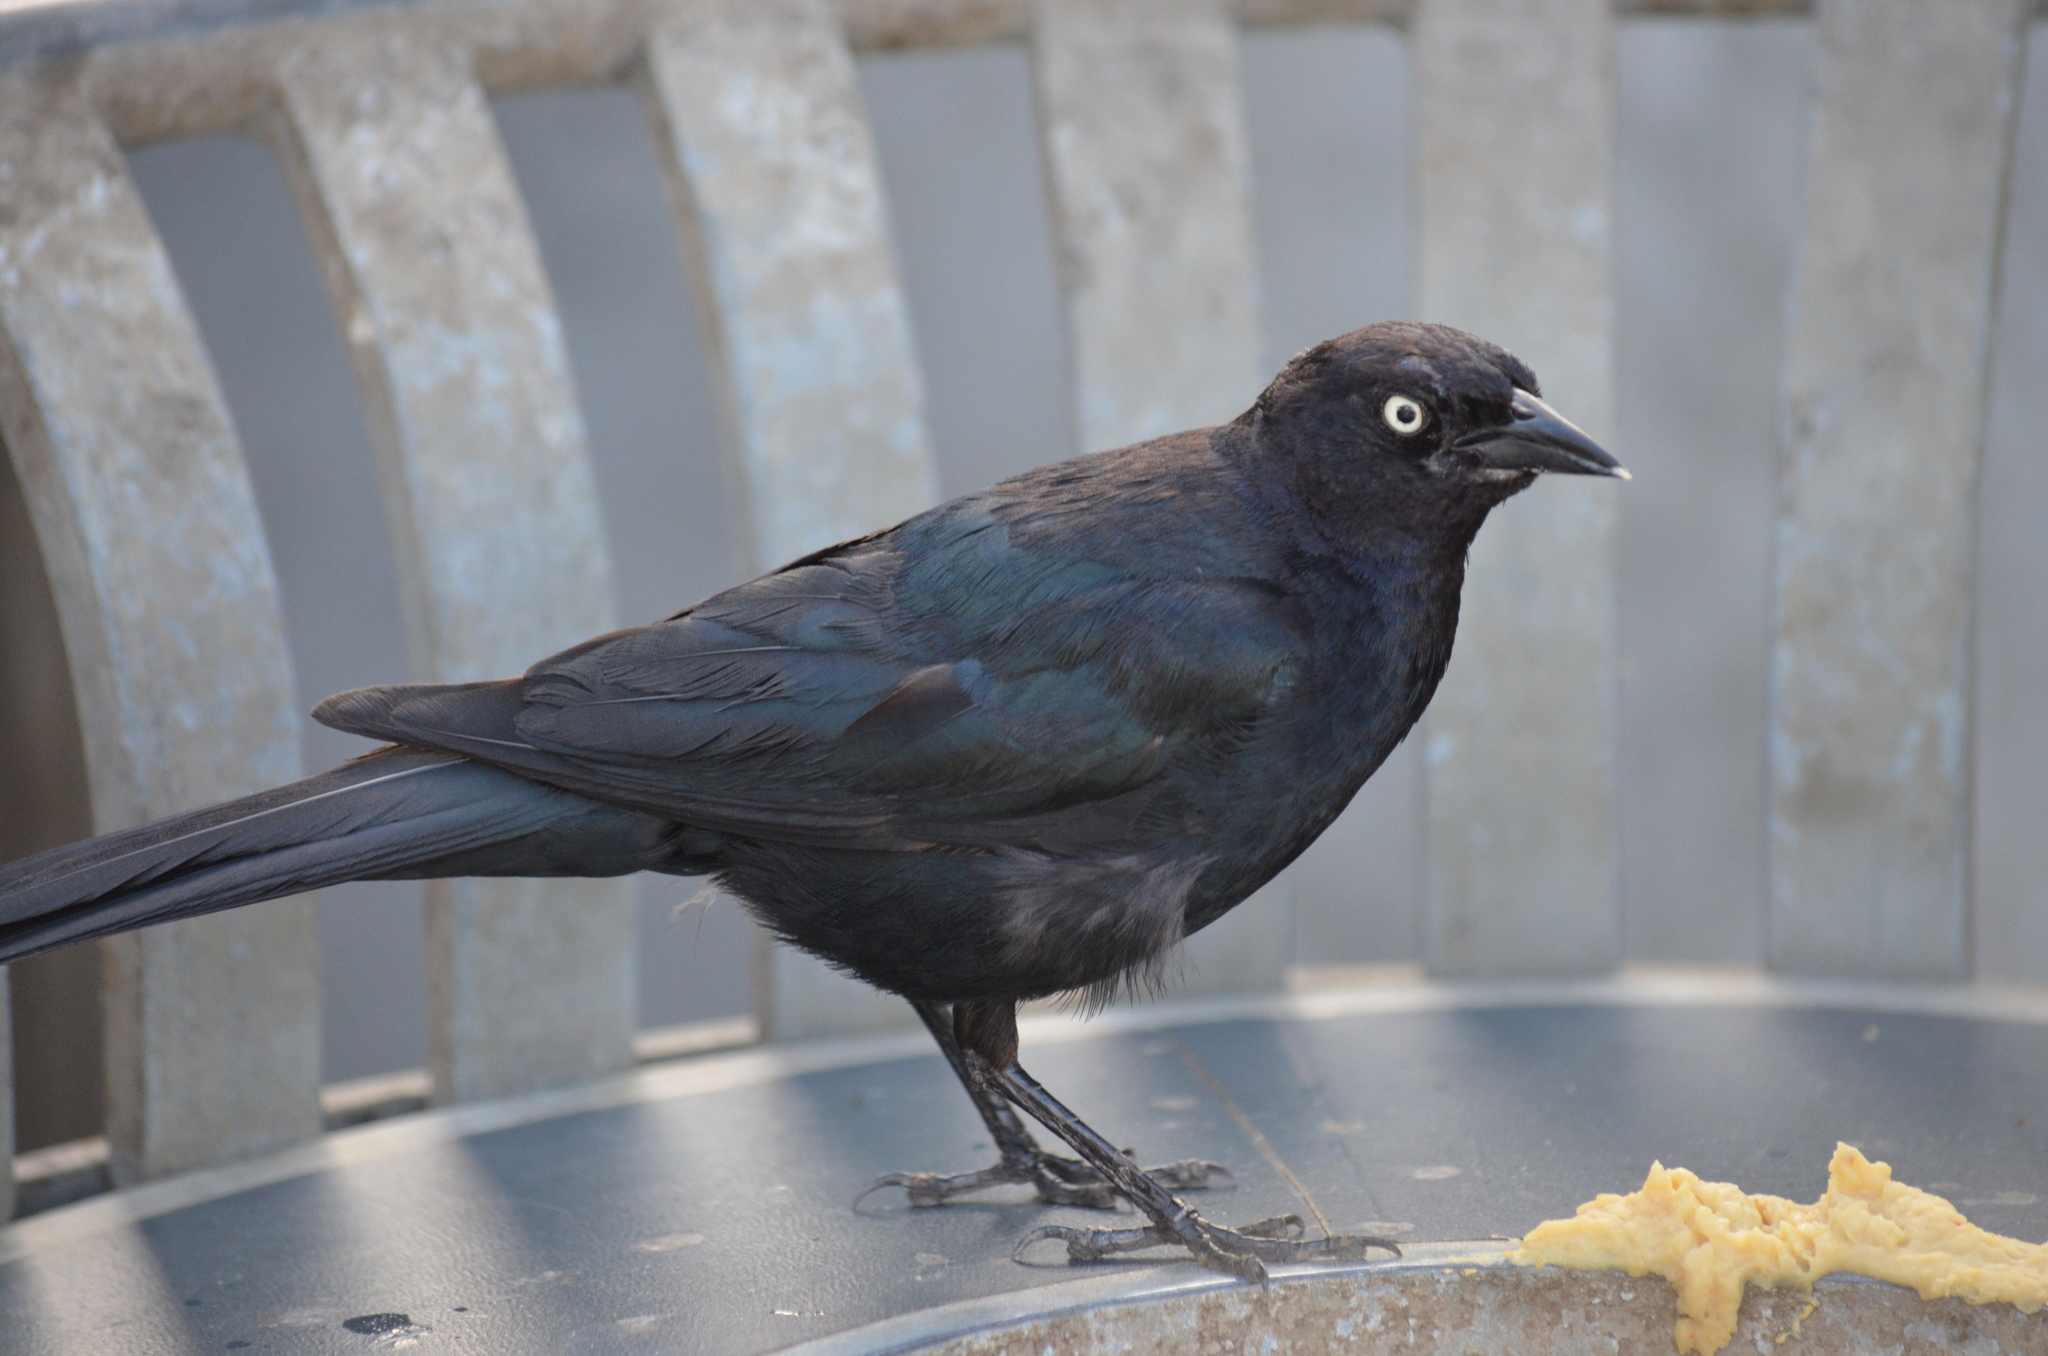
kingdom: Animalia
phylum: Chordata
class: Aves
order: Passeriformes
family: Icteridae
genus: Euphagus
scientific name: Euphagus cyanocephalus
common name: Brewer's blackbird
